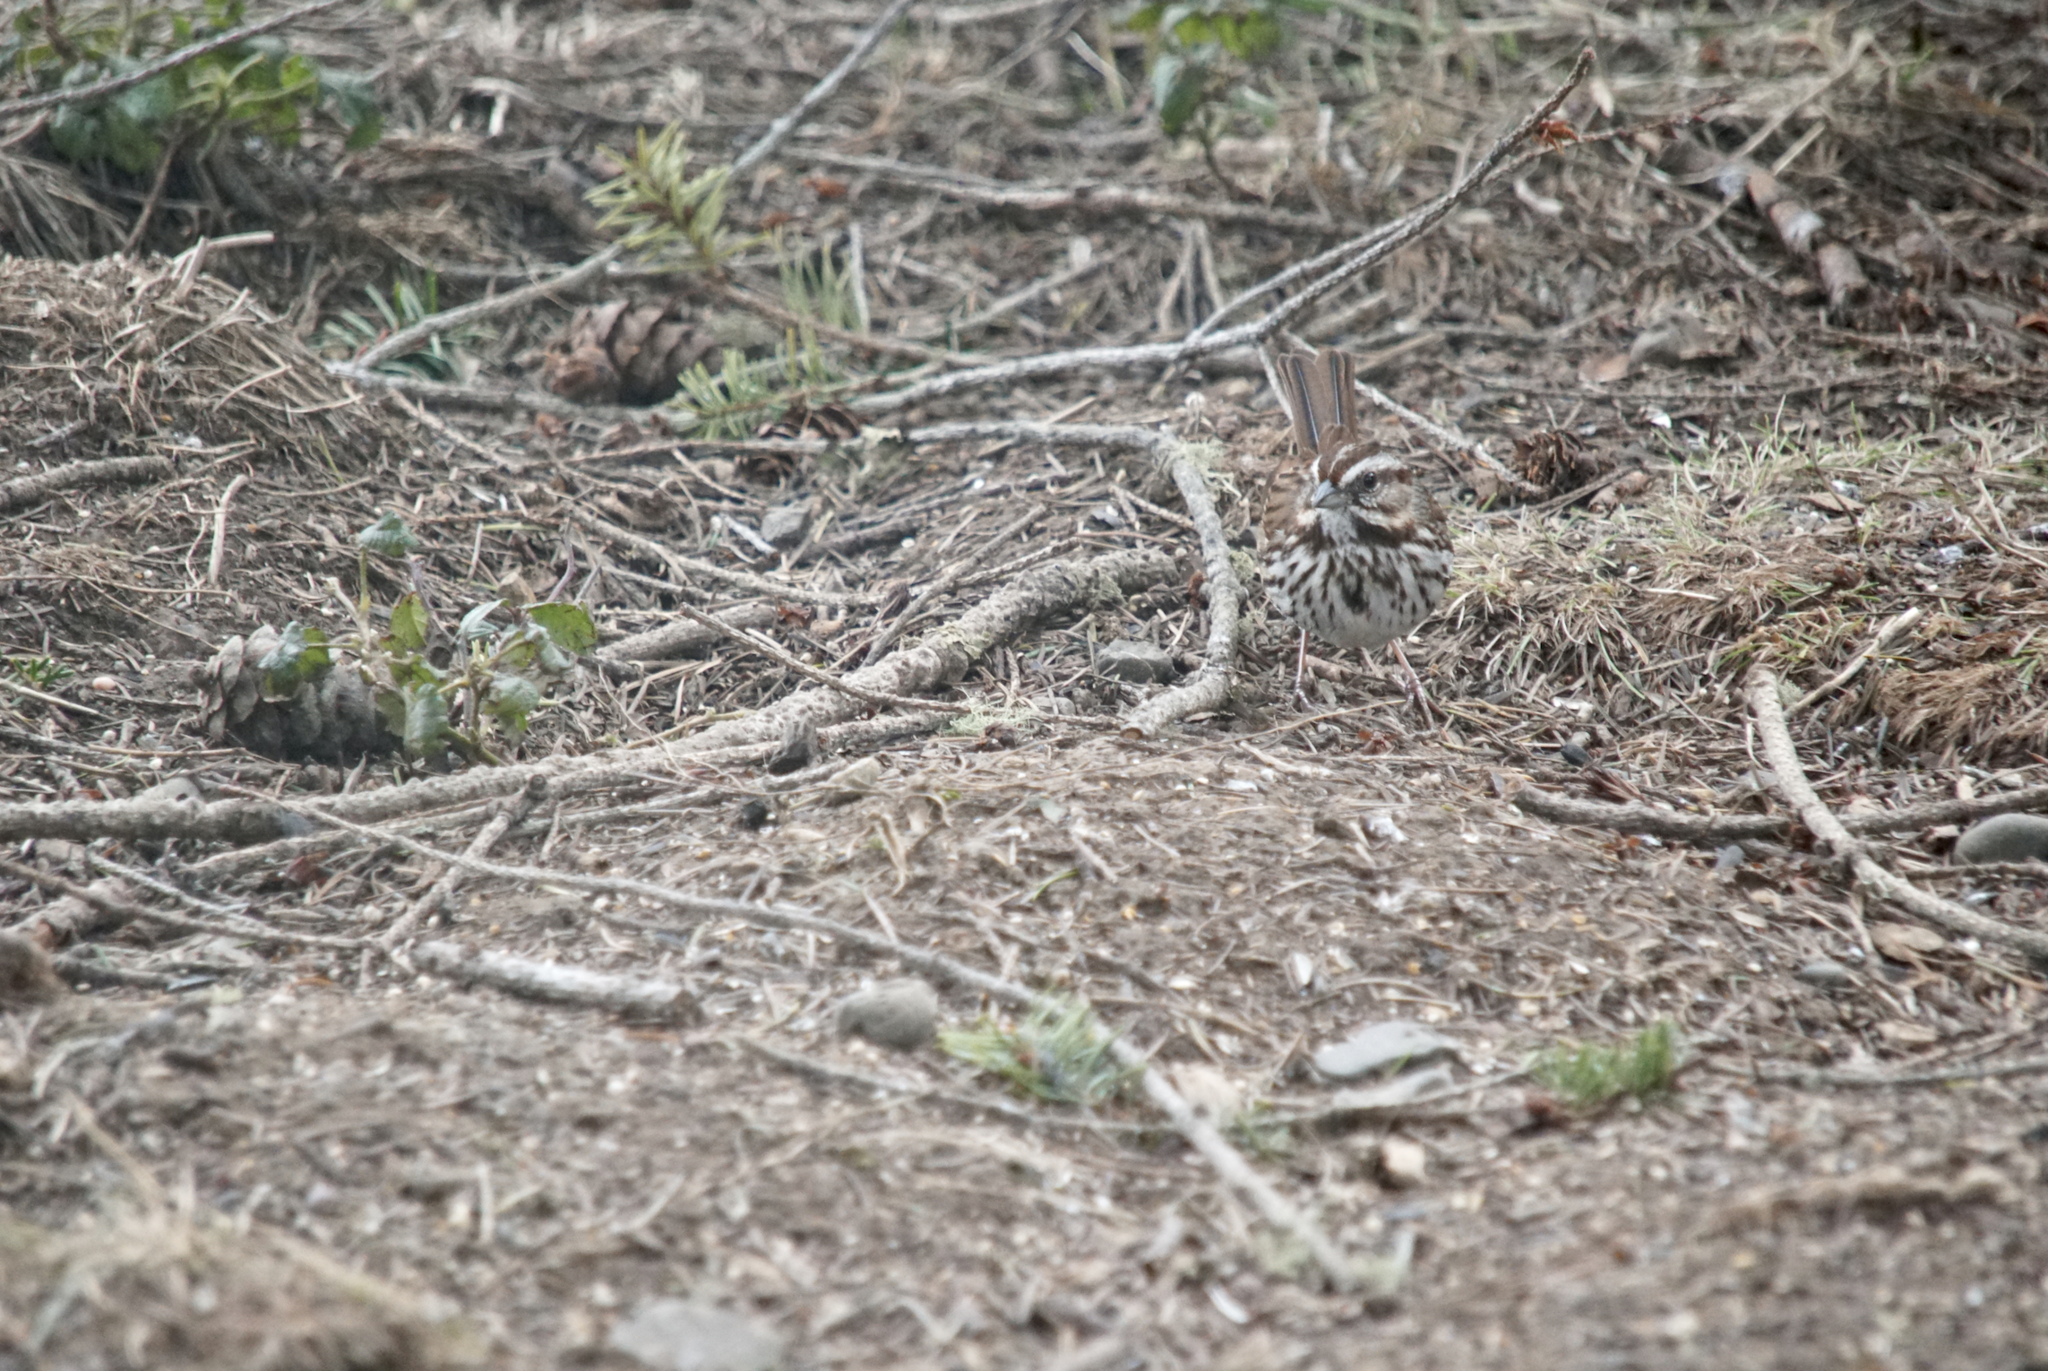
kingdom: Animalia
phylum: Chordata
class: Aves
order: Passeriformes
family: Passerellidae
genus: Melospiza
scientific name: Melospiza melodia
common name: Song sparrow
